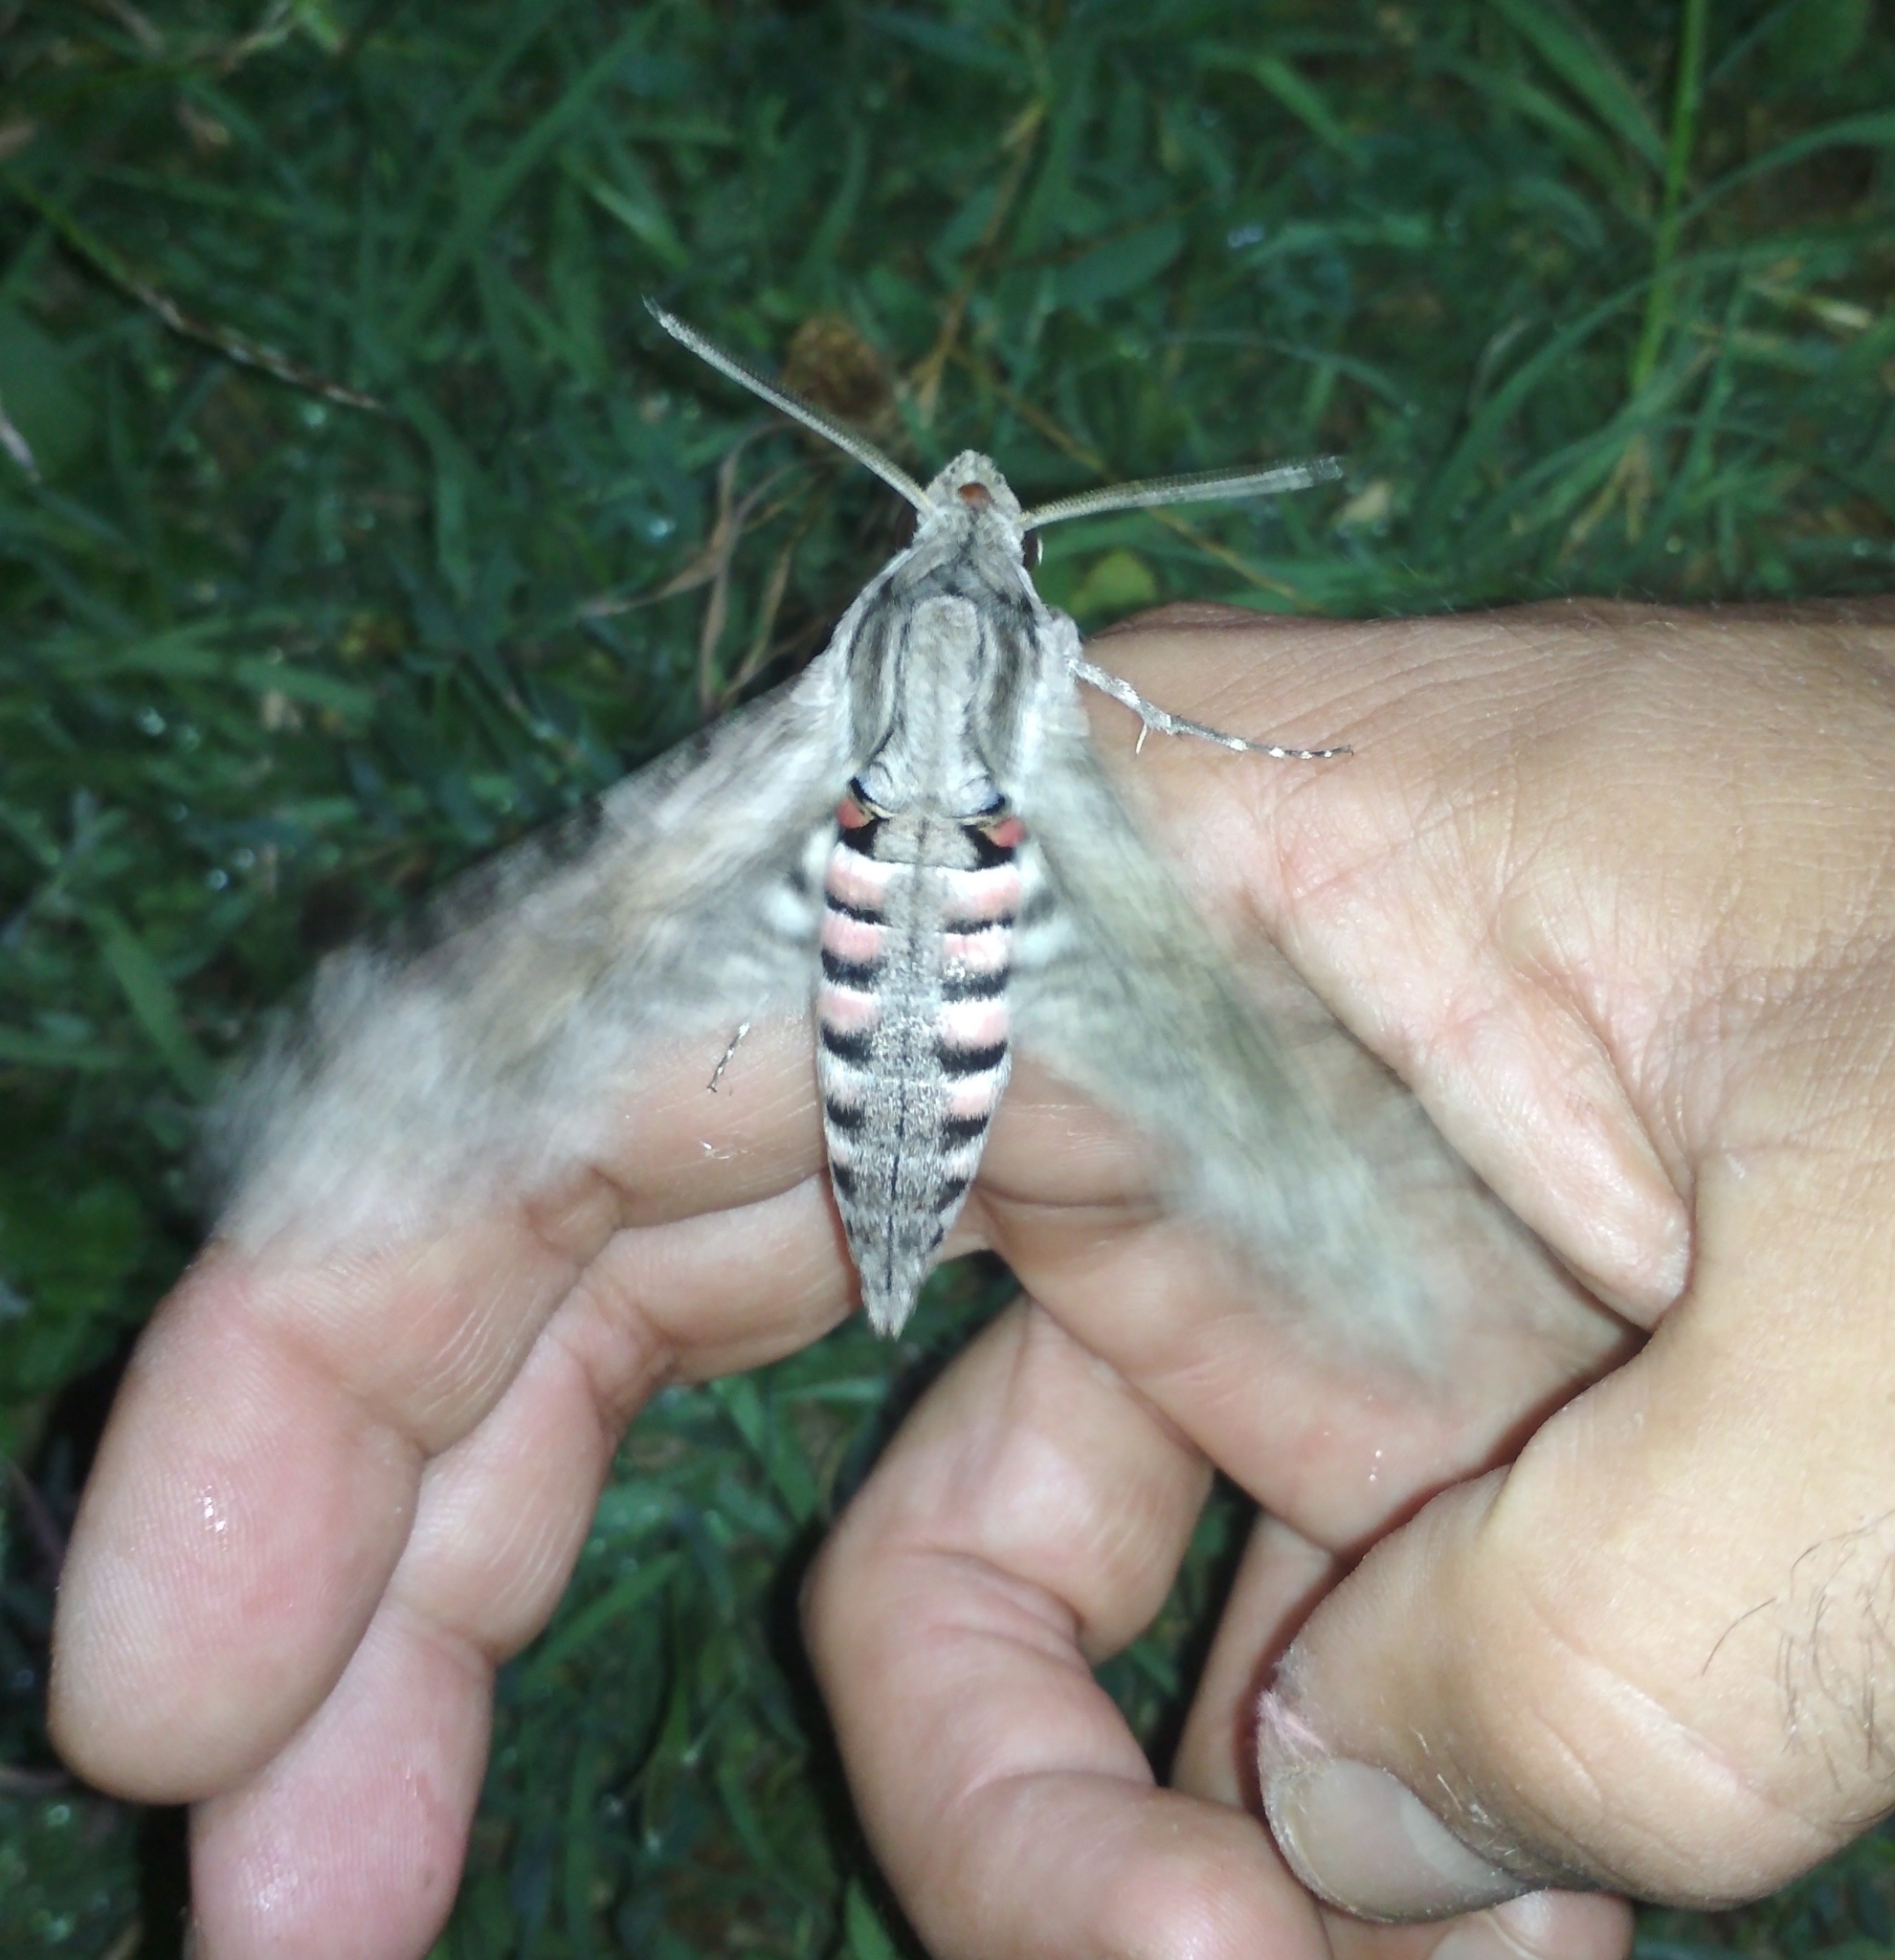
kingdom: Animalia
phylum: Arthropoda
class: Insecta
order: Lepidoptera
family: Sphingidae
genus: Agrius
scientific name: Agrius convolvuli
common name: Convolvulus hawkmoth
